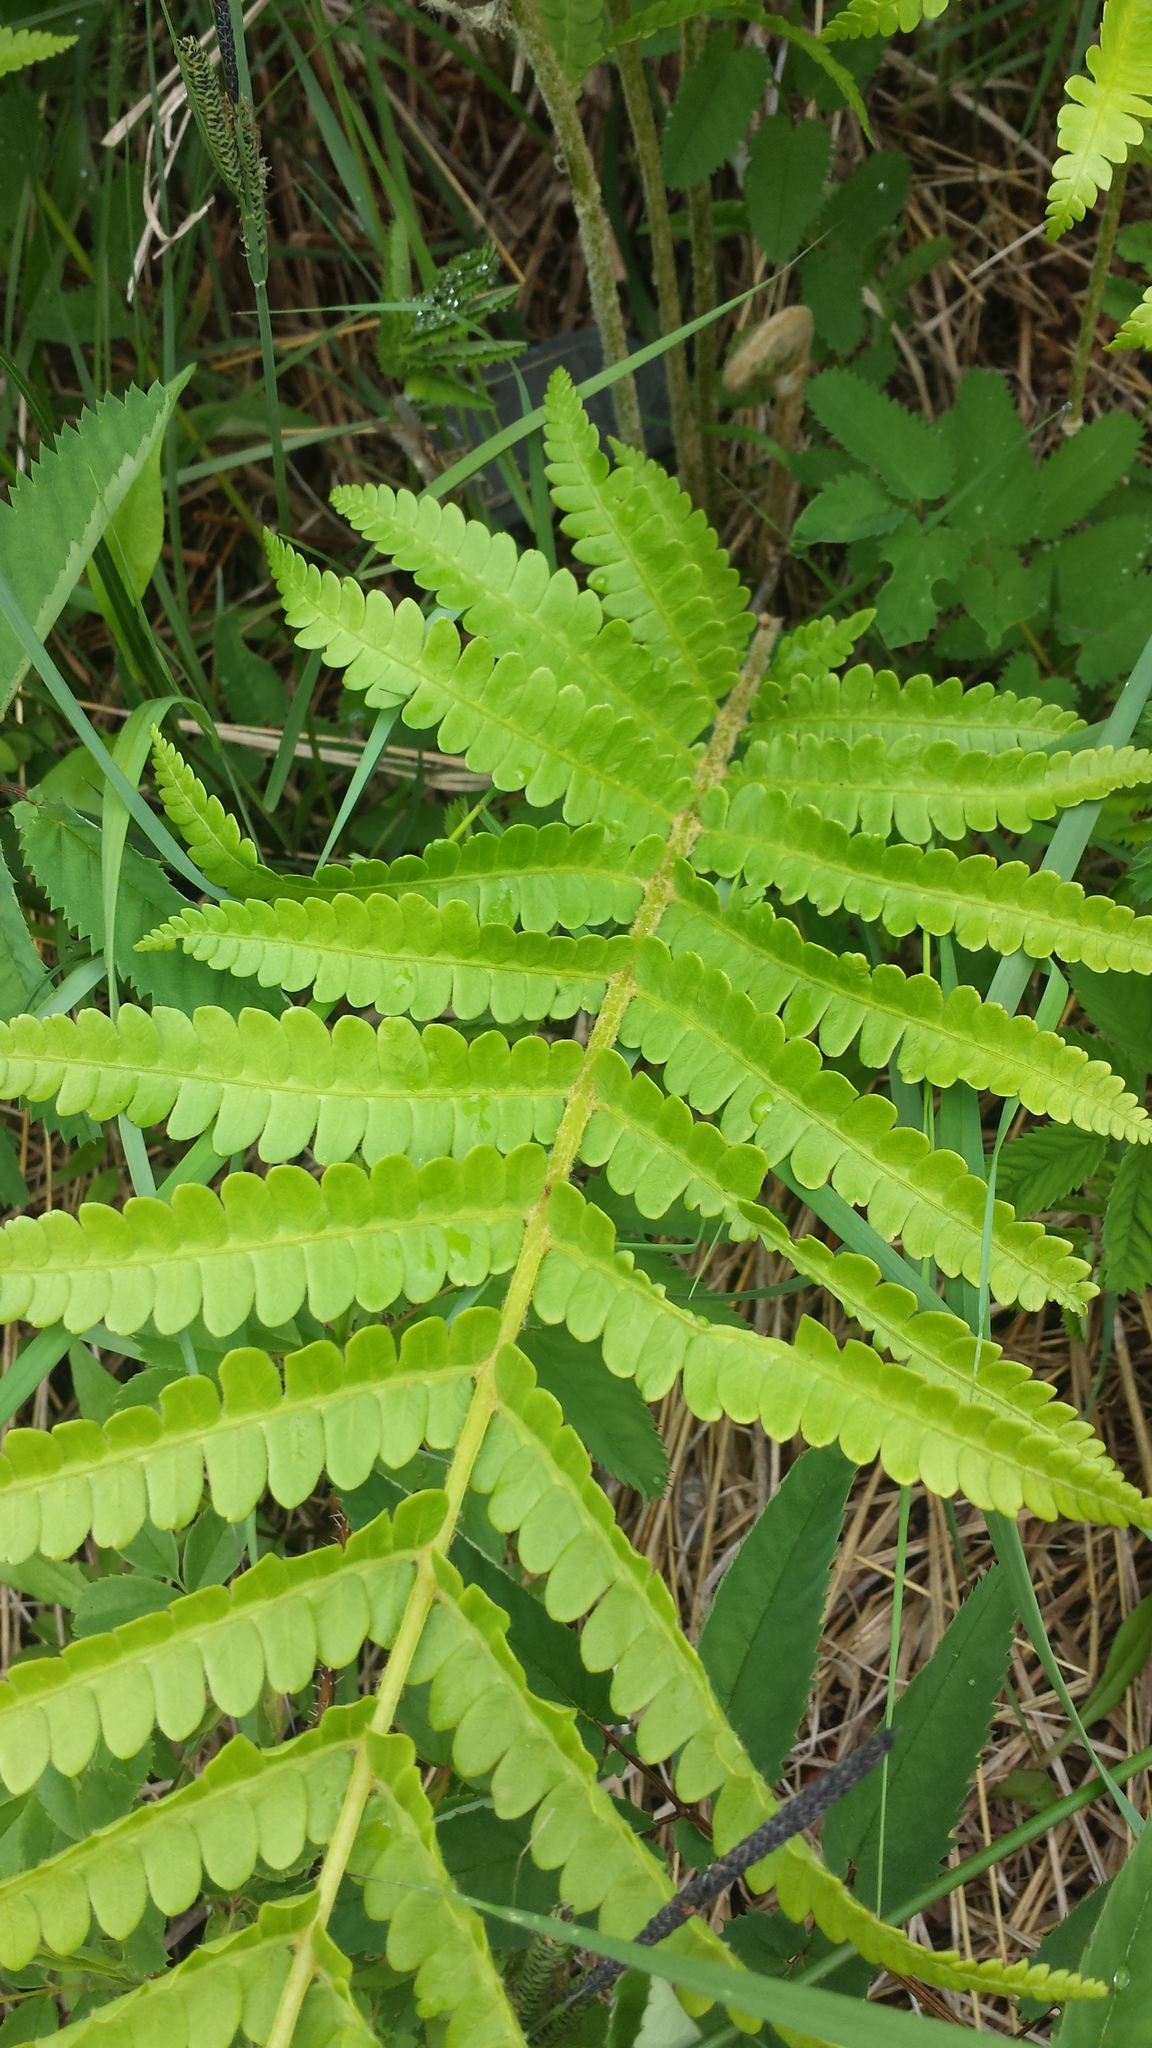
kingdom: Plantae
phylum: Tracheophyta
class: Polypodiopsida
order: Osmundales
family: Osmundaceae
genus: Osmundastrum
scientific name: Osmundastrum cinnamomeum
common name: Cinnamon fern
